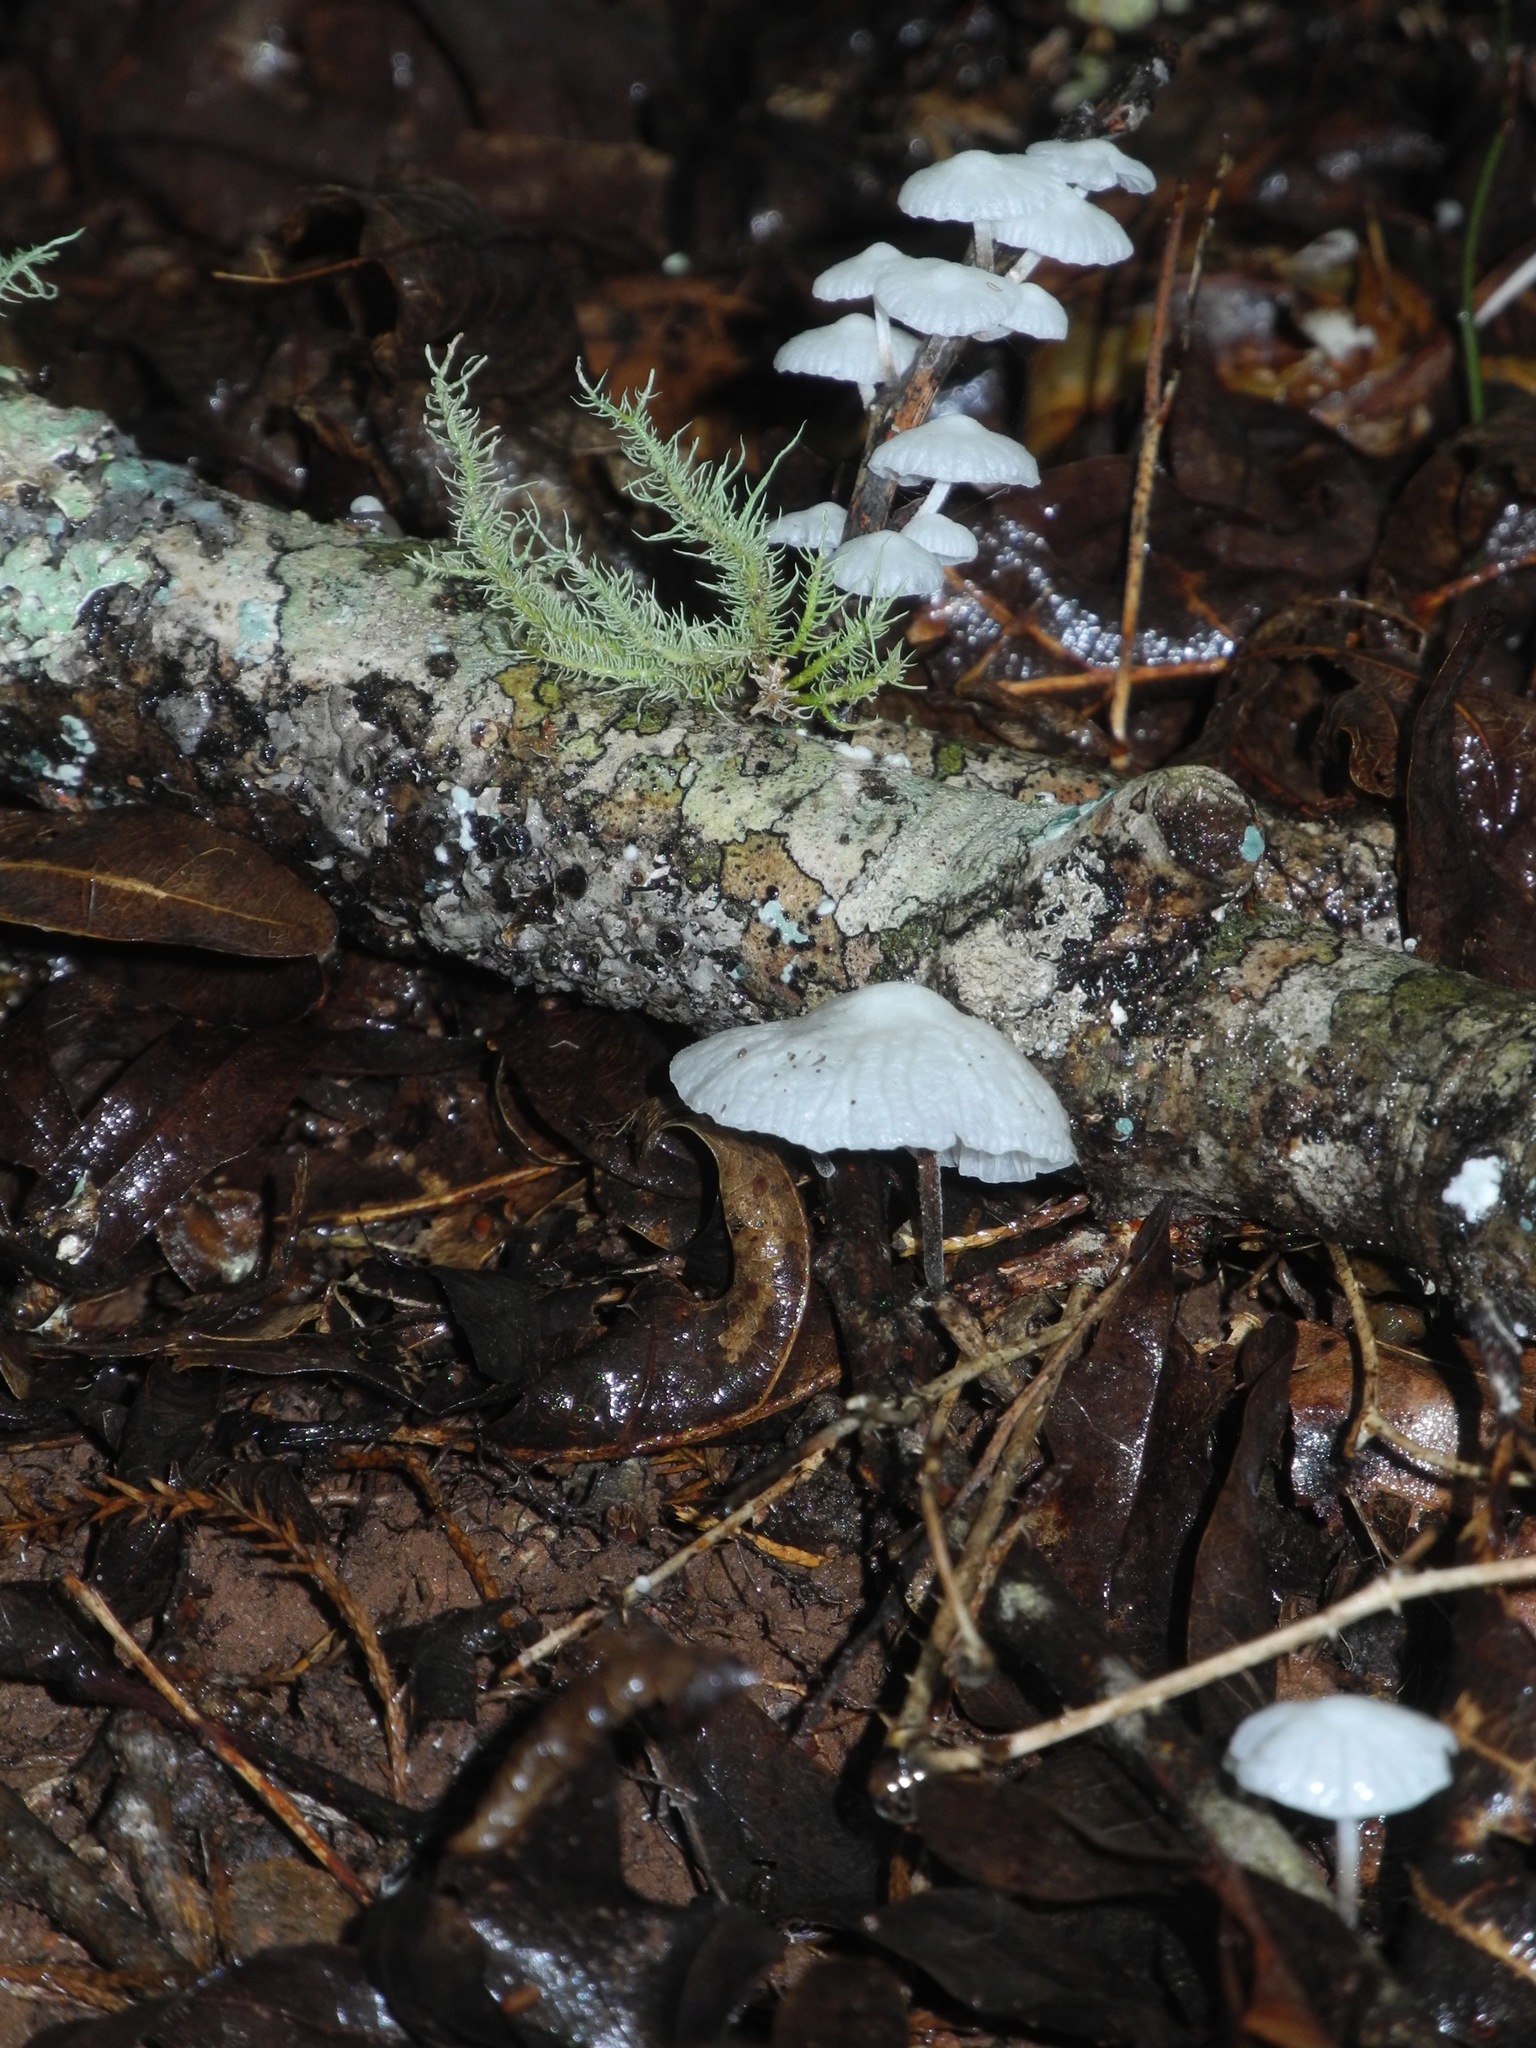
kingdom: Fungi
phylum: Basidiomycota
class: Agaricomycetes
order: Agaricales
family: Marasmiaceae
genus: Tetrapyrgos
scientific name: Tetrapyrgos nigripes
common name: Black-stalked marasmius
